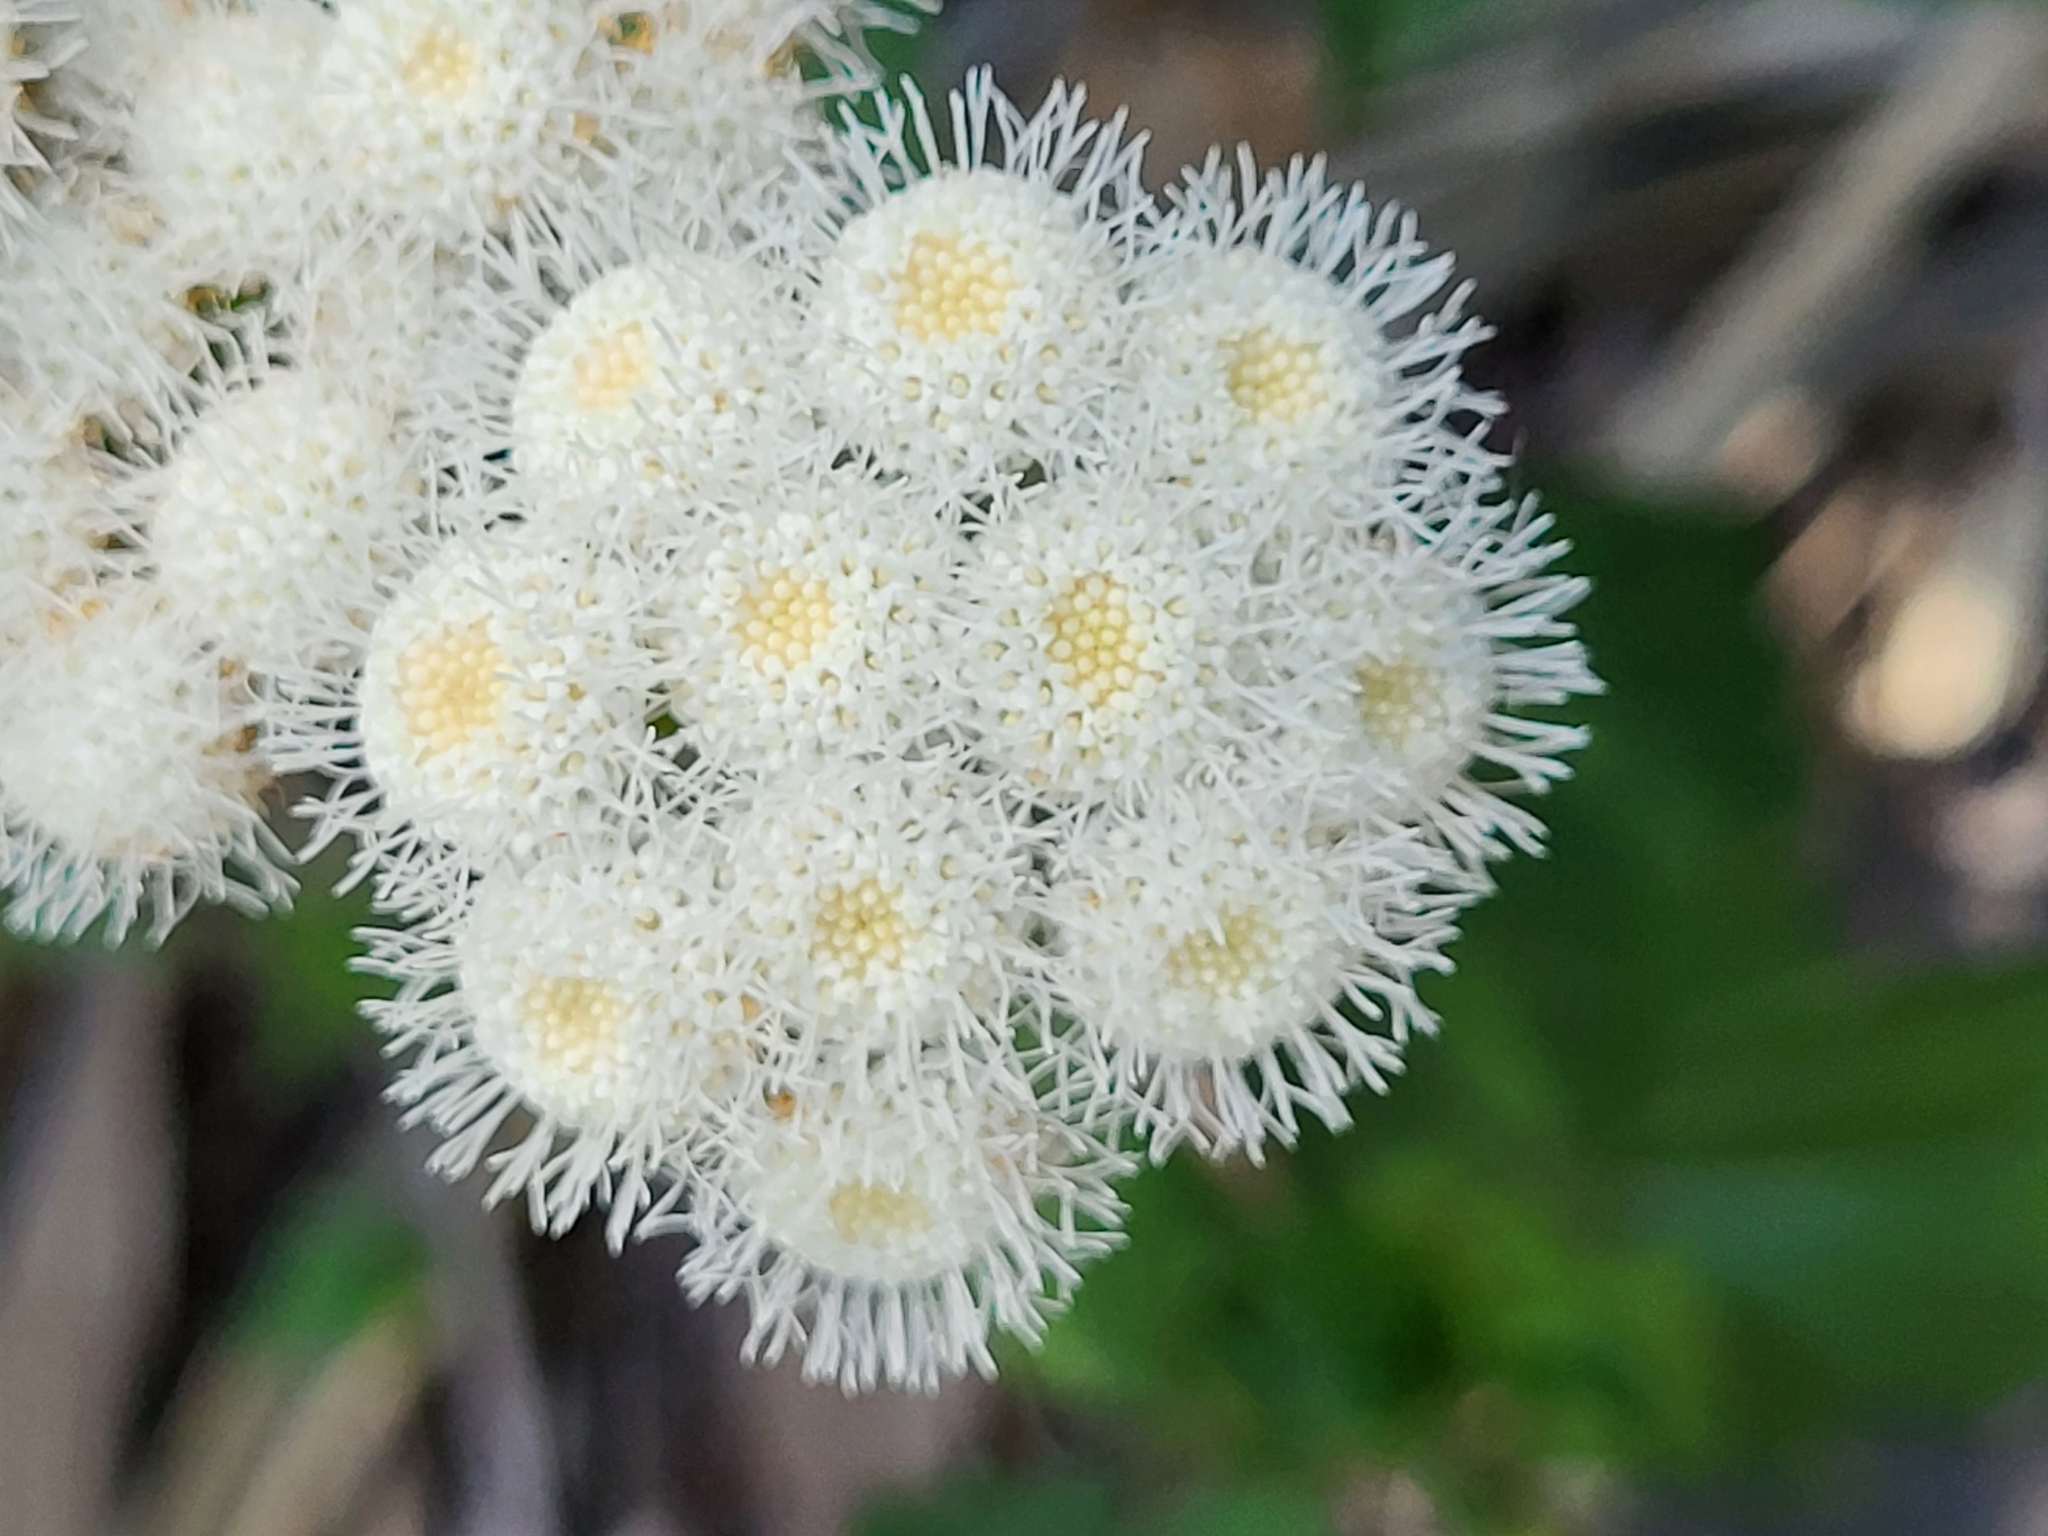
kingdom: Plantae
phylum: Tracheophyta
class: Magnoliopsida
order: Asterales
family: Asteraceae
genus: Ageratina
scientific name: Ageratina adenophora
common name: Sticky snakeroot
